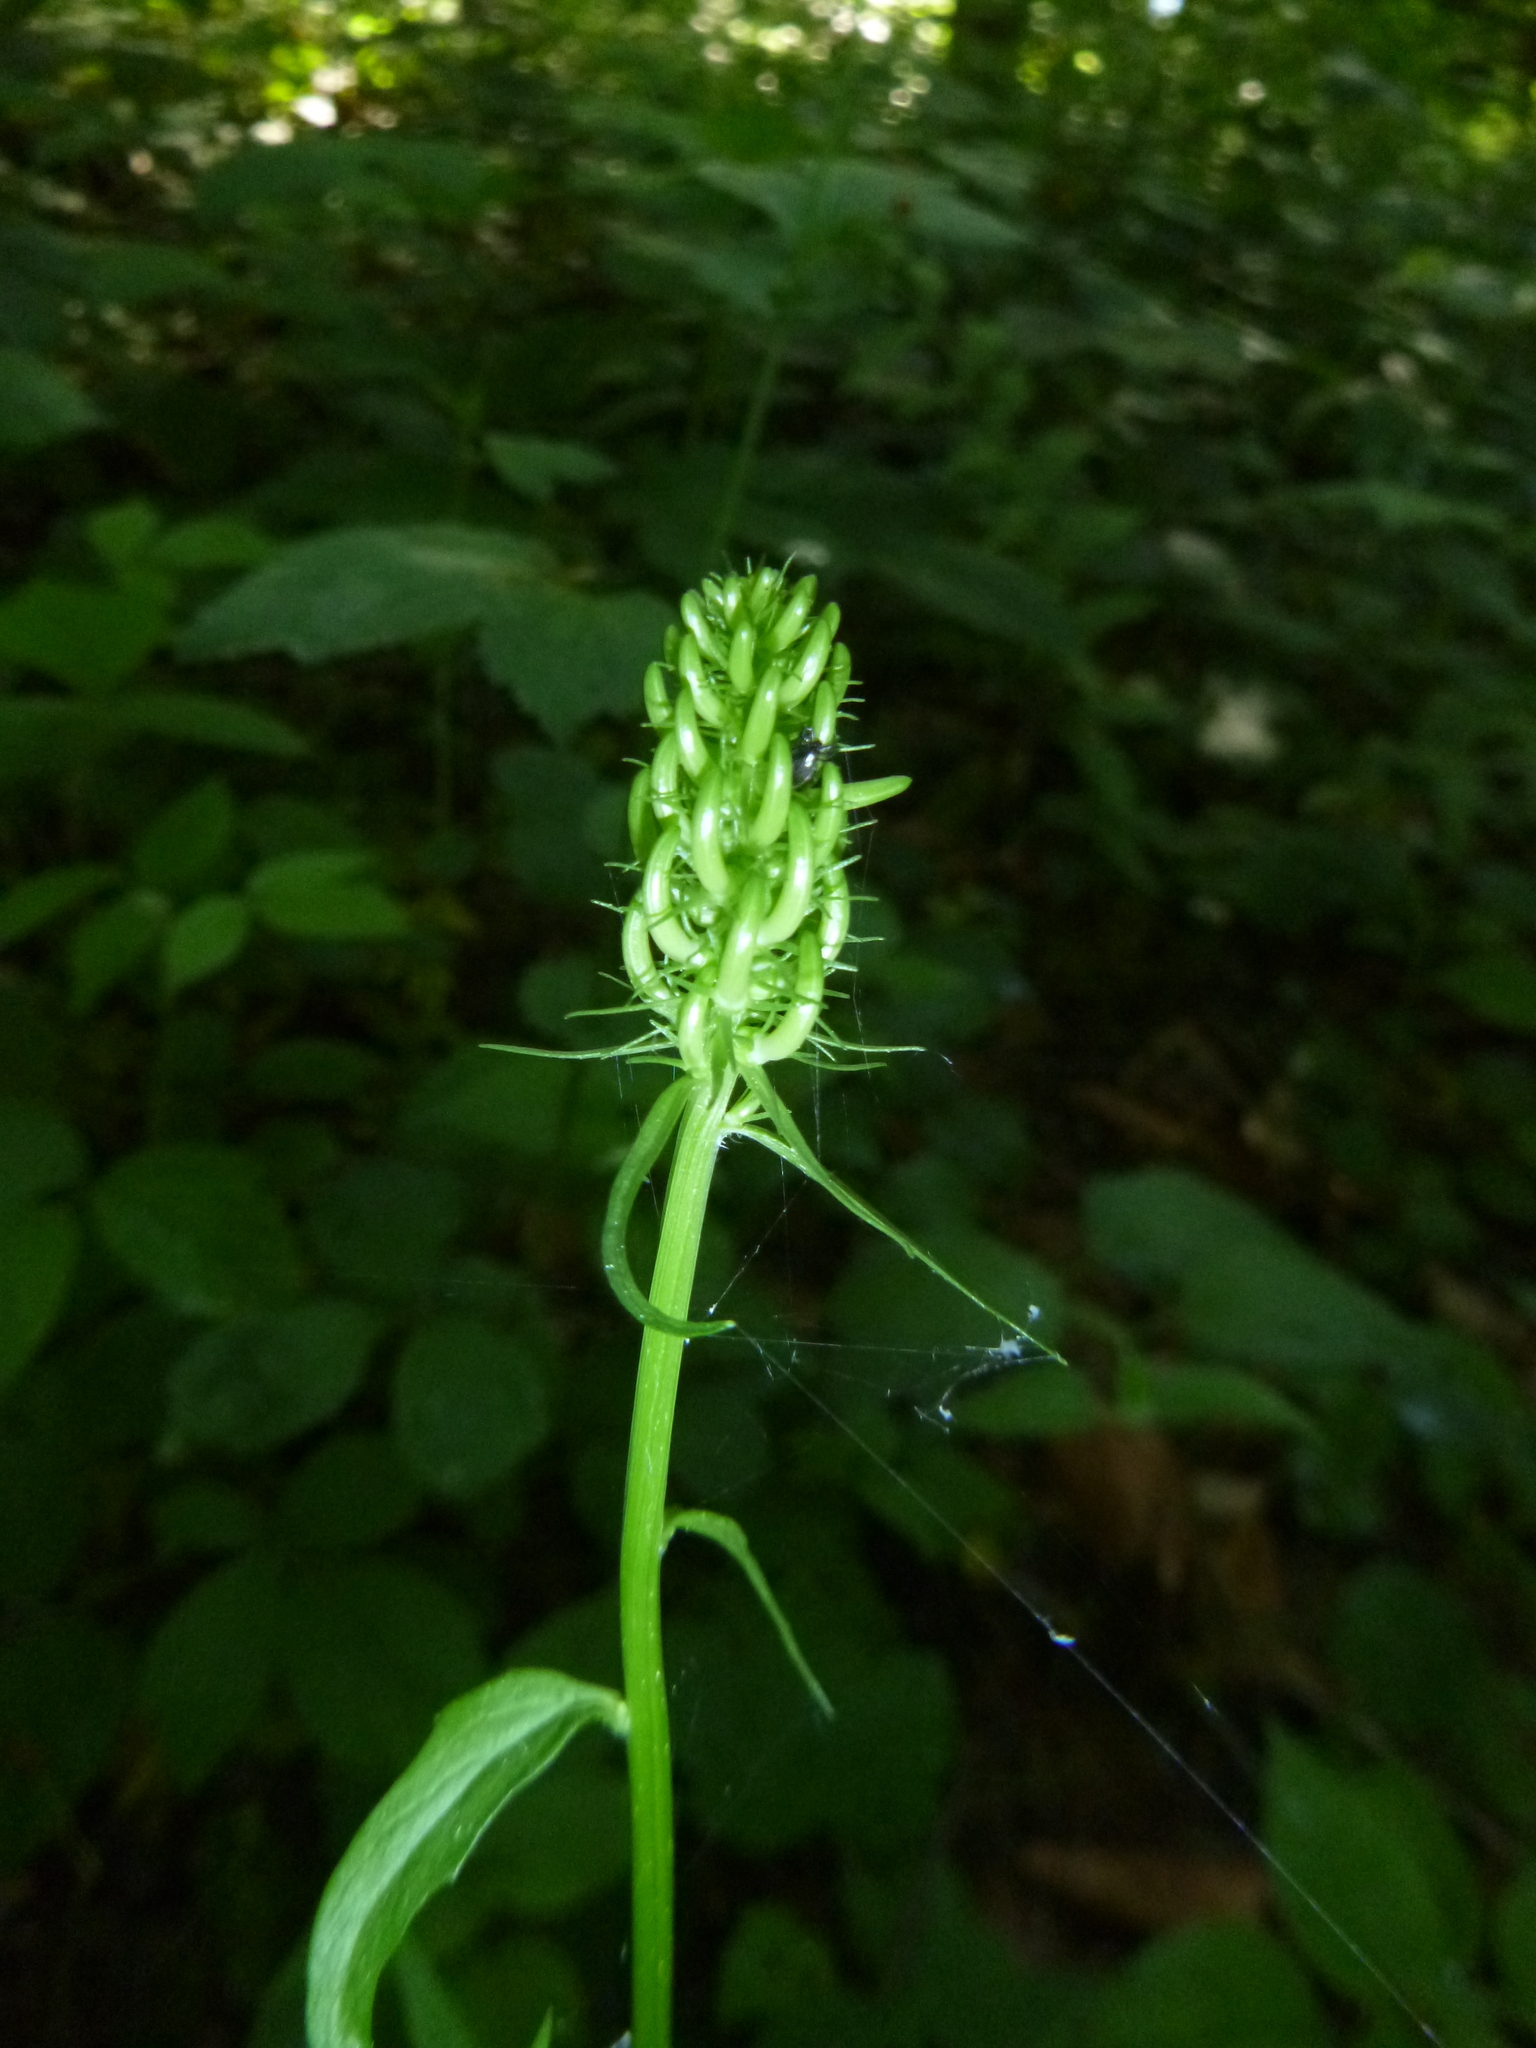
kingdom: Plantae
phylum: Tracheophyta
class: Magnoliopsida
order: Asterales
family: Campanulaceae
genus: Phyteuma
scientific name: Phyteuma spicatum
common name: Spiked rampion
